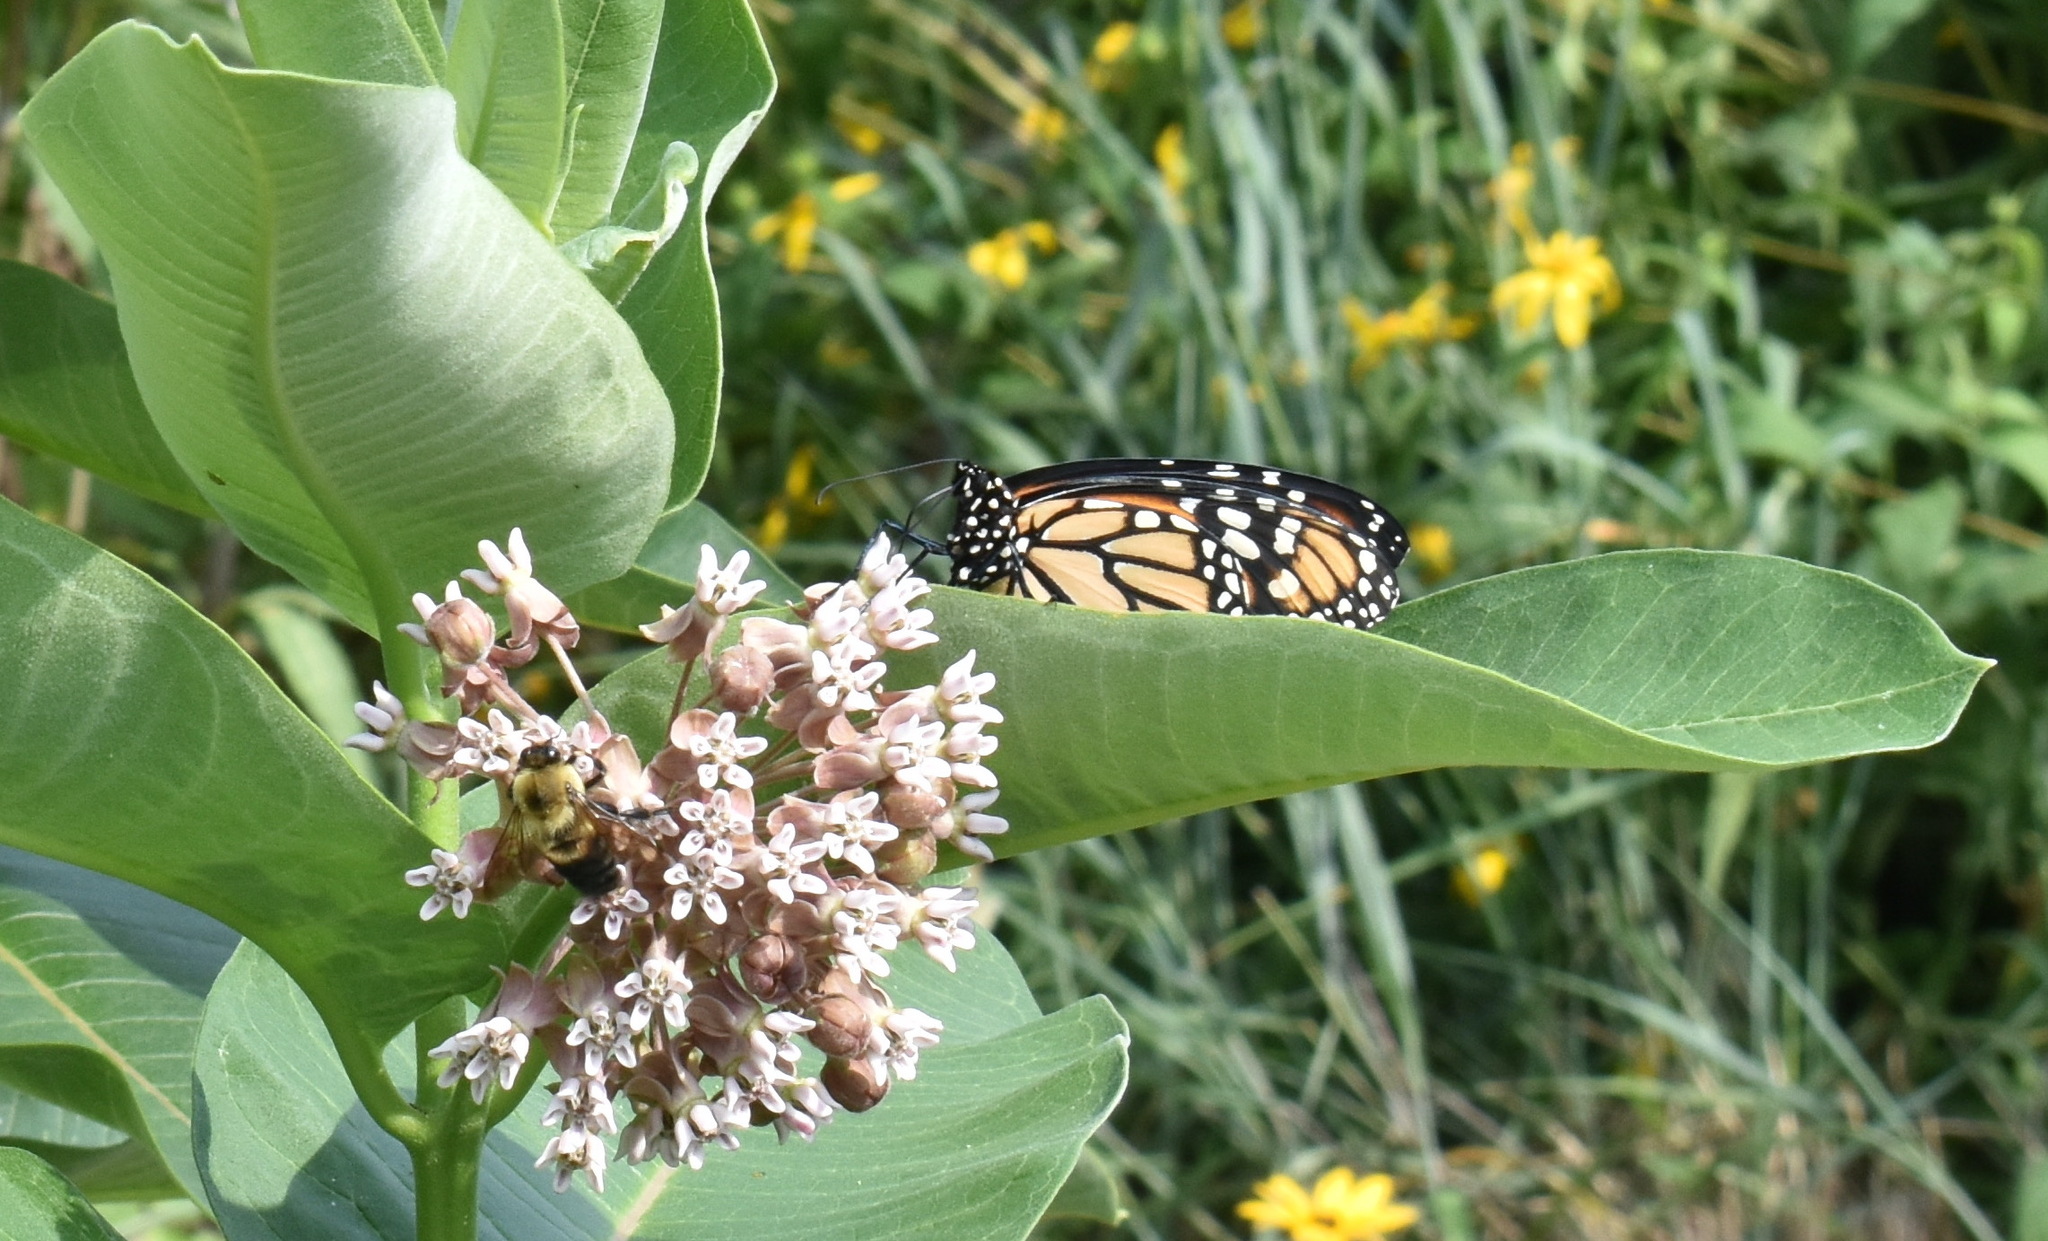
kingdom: Animalia
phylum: Arthropoda
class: Insecta
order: Lepidoptera
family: Nymphalidae
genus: Danaus
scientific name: Danaus plexippus
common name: Monarch
